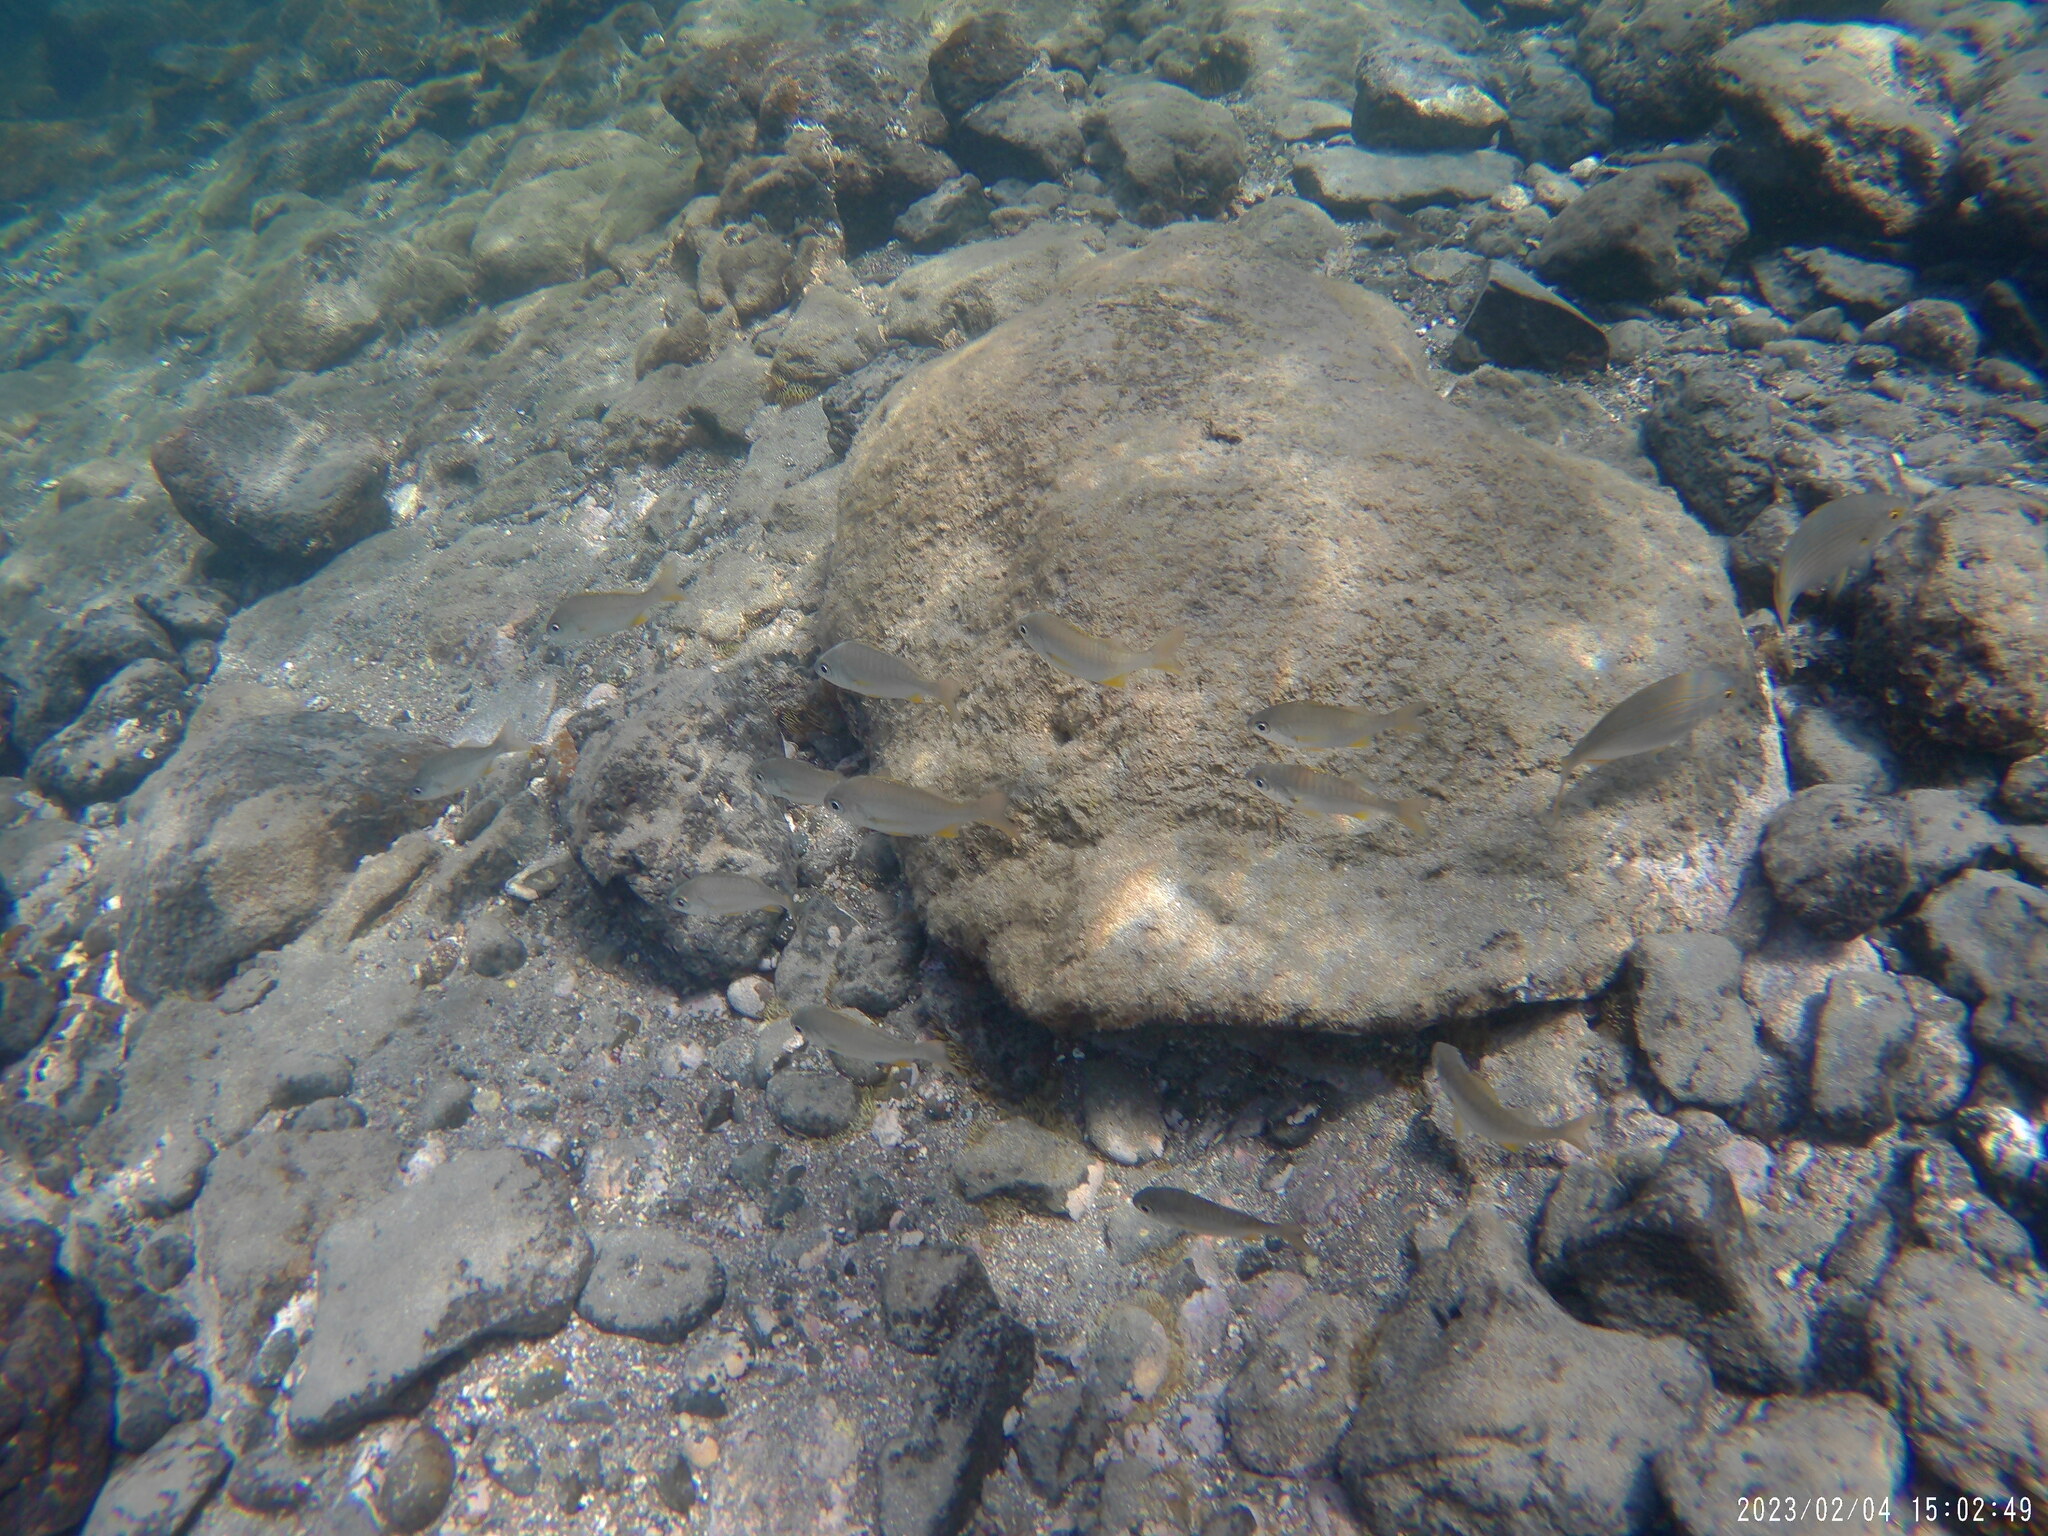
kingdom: Animalia
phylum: Chordata
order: Perciformes
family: Haemulidae
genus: Pomadasys
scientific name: Pomadasys incisus
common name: Bastard grunt
